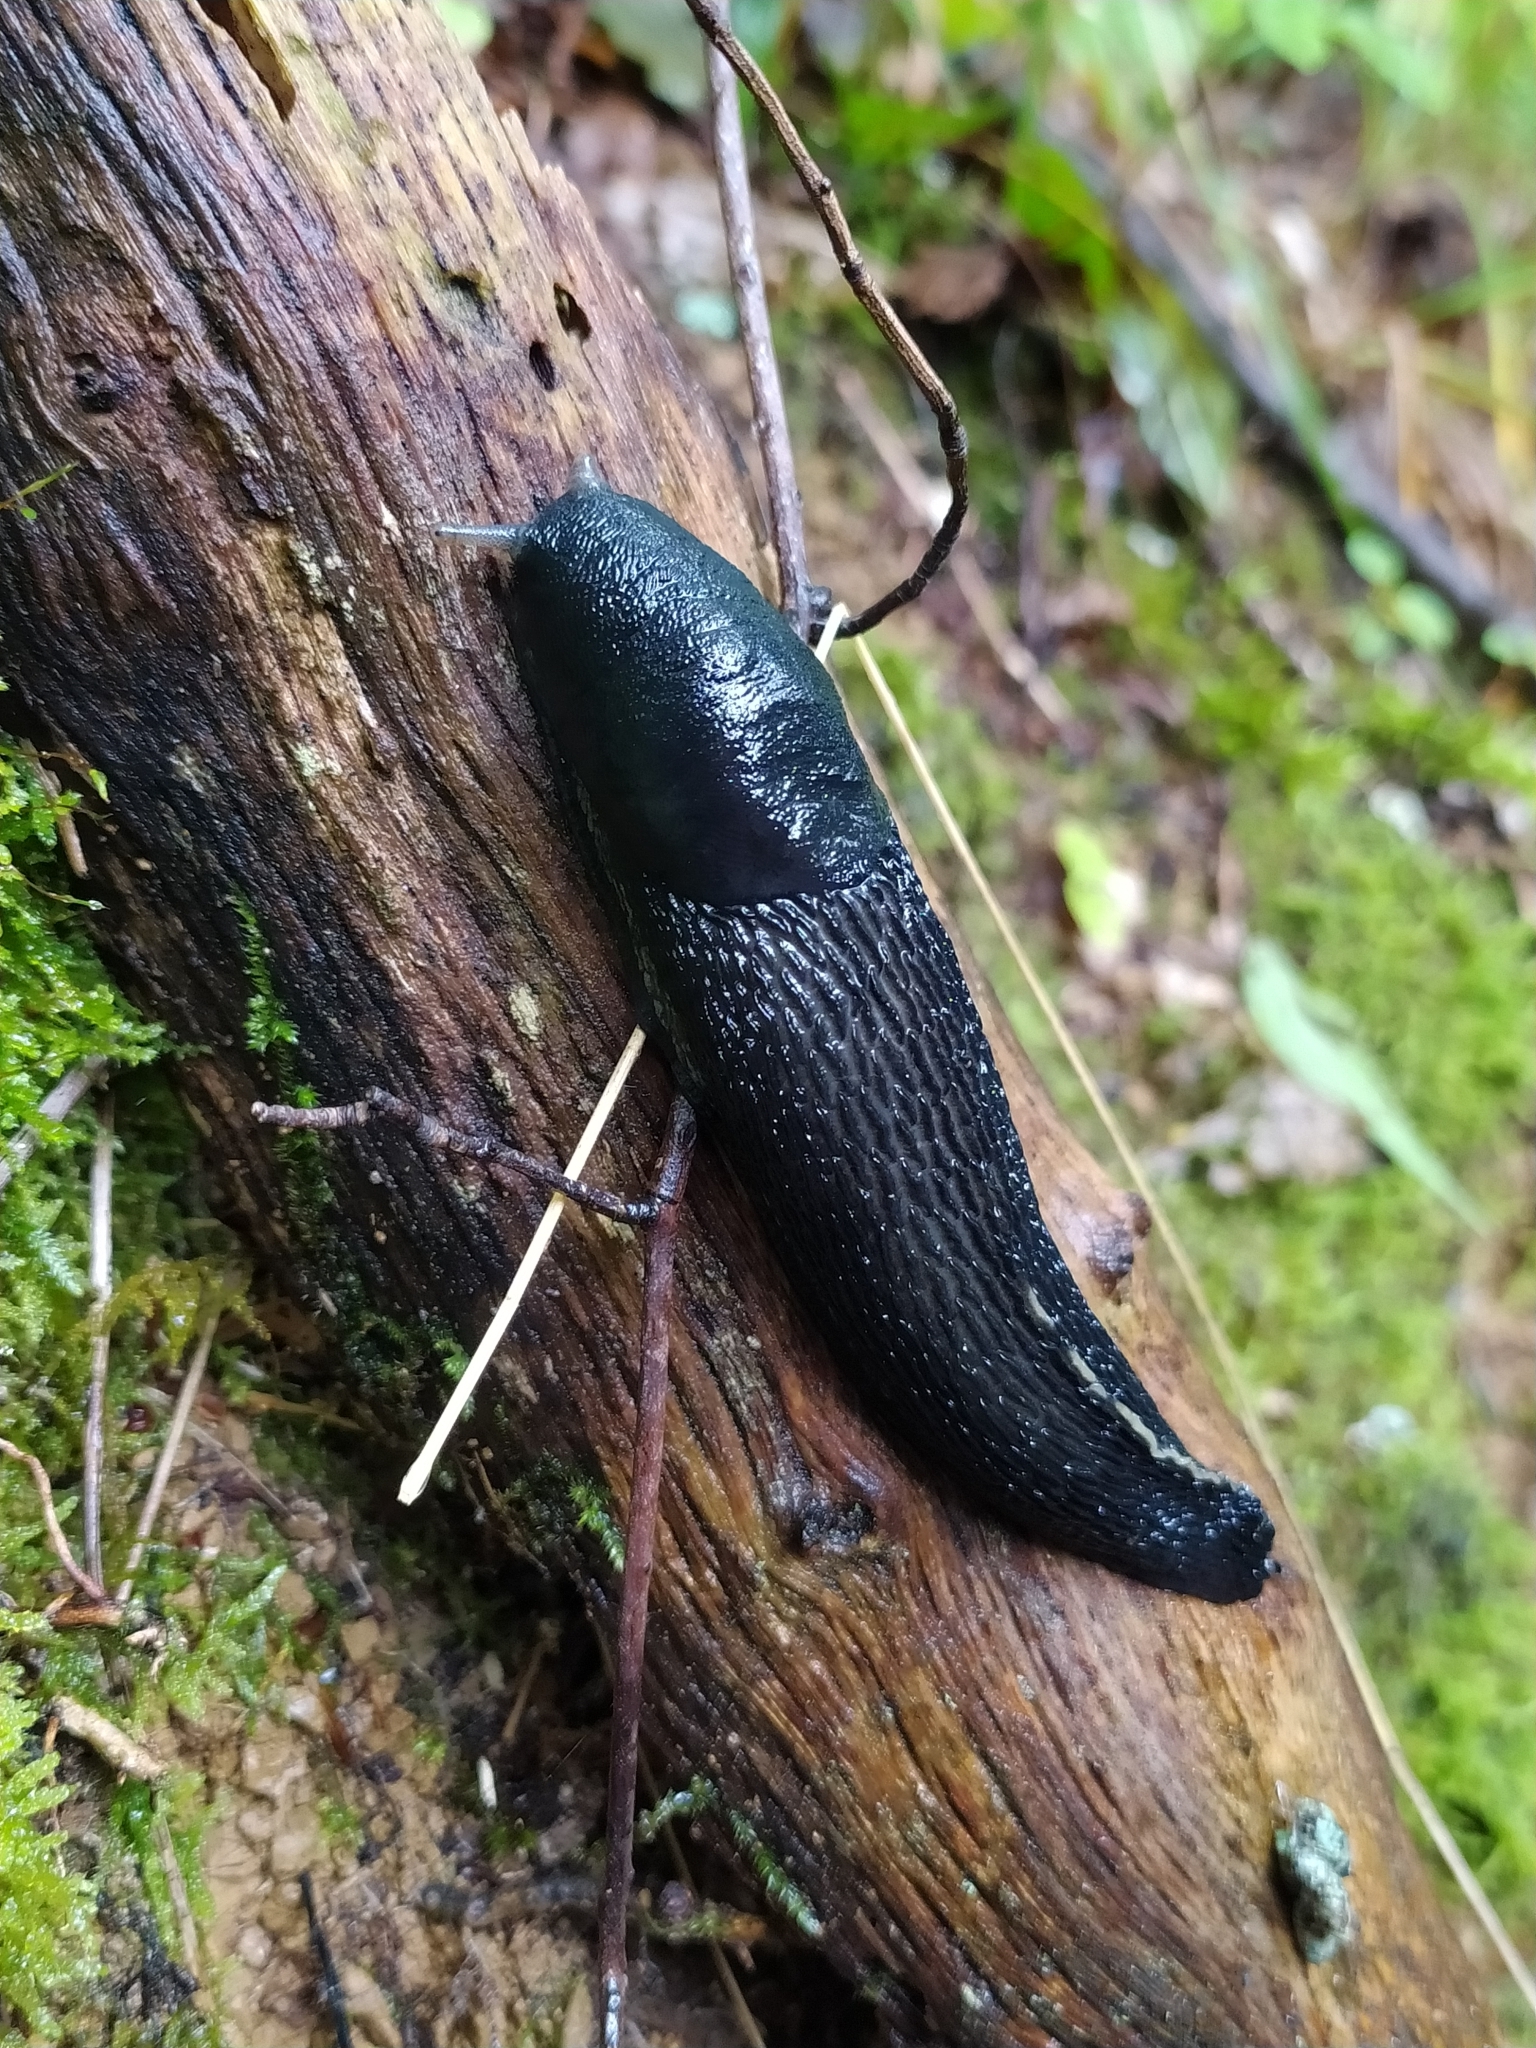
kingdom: Animalia
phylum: Mollusca
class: Gastropoda
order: Stylommatophora
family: Limacidae
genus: Limax
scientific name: Limax cinereoniger
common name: Ash-black slug
